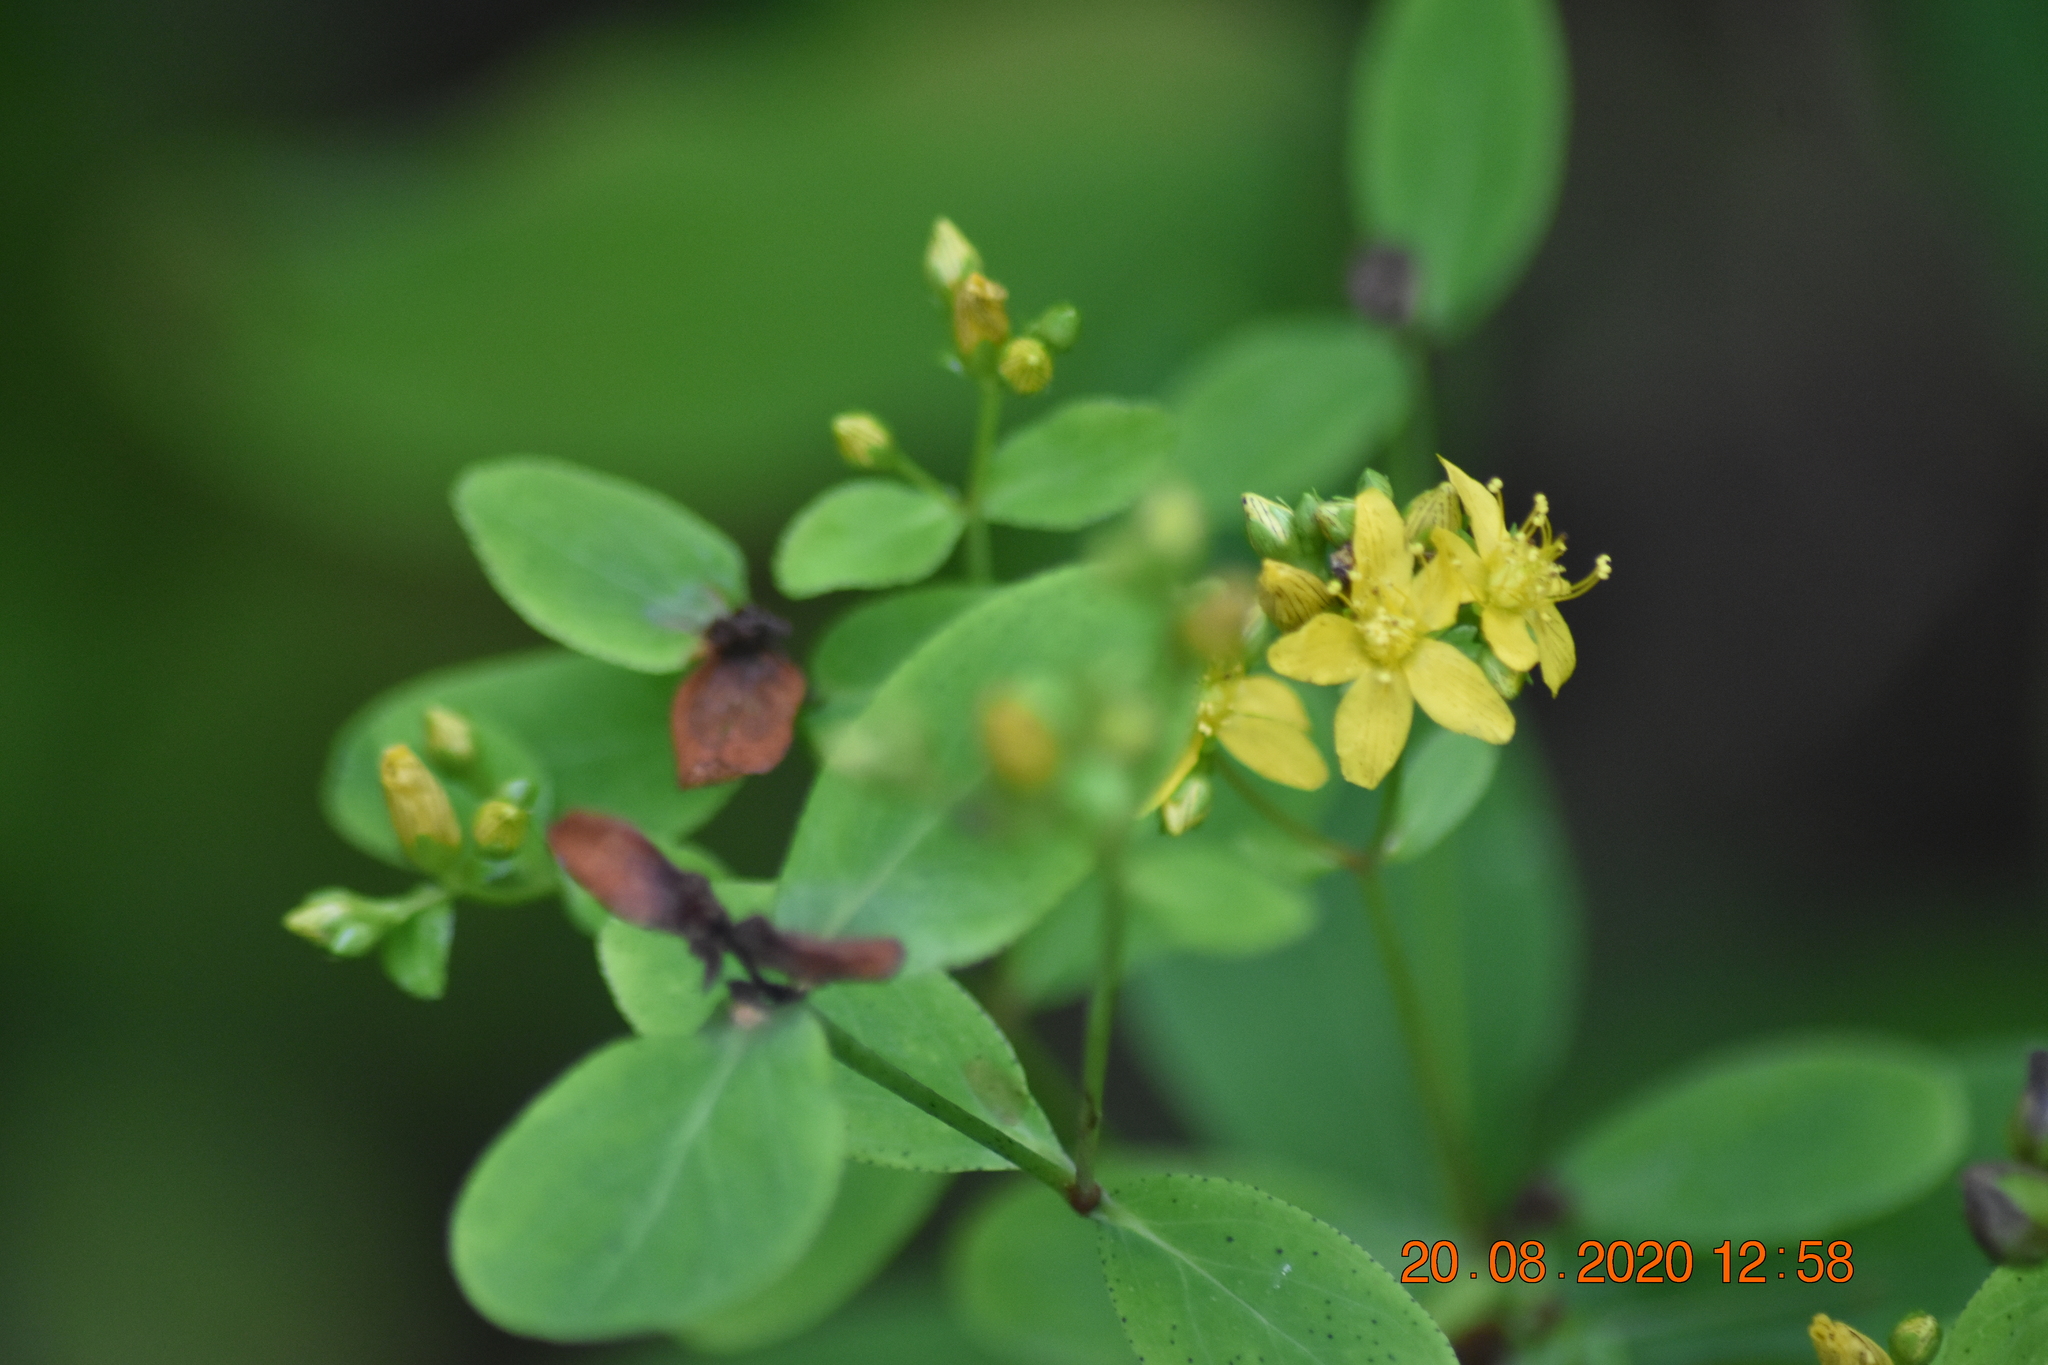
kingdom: Plantae
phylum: Tracheophyta
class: Magnoliopsida
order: Malpighiales
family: Hypericaceae
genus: Hypericum
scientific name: Hypericum punctatum
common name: Spotted st. john's-wort
